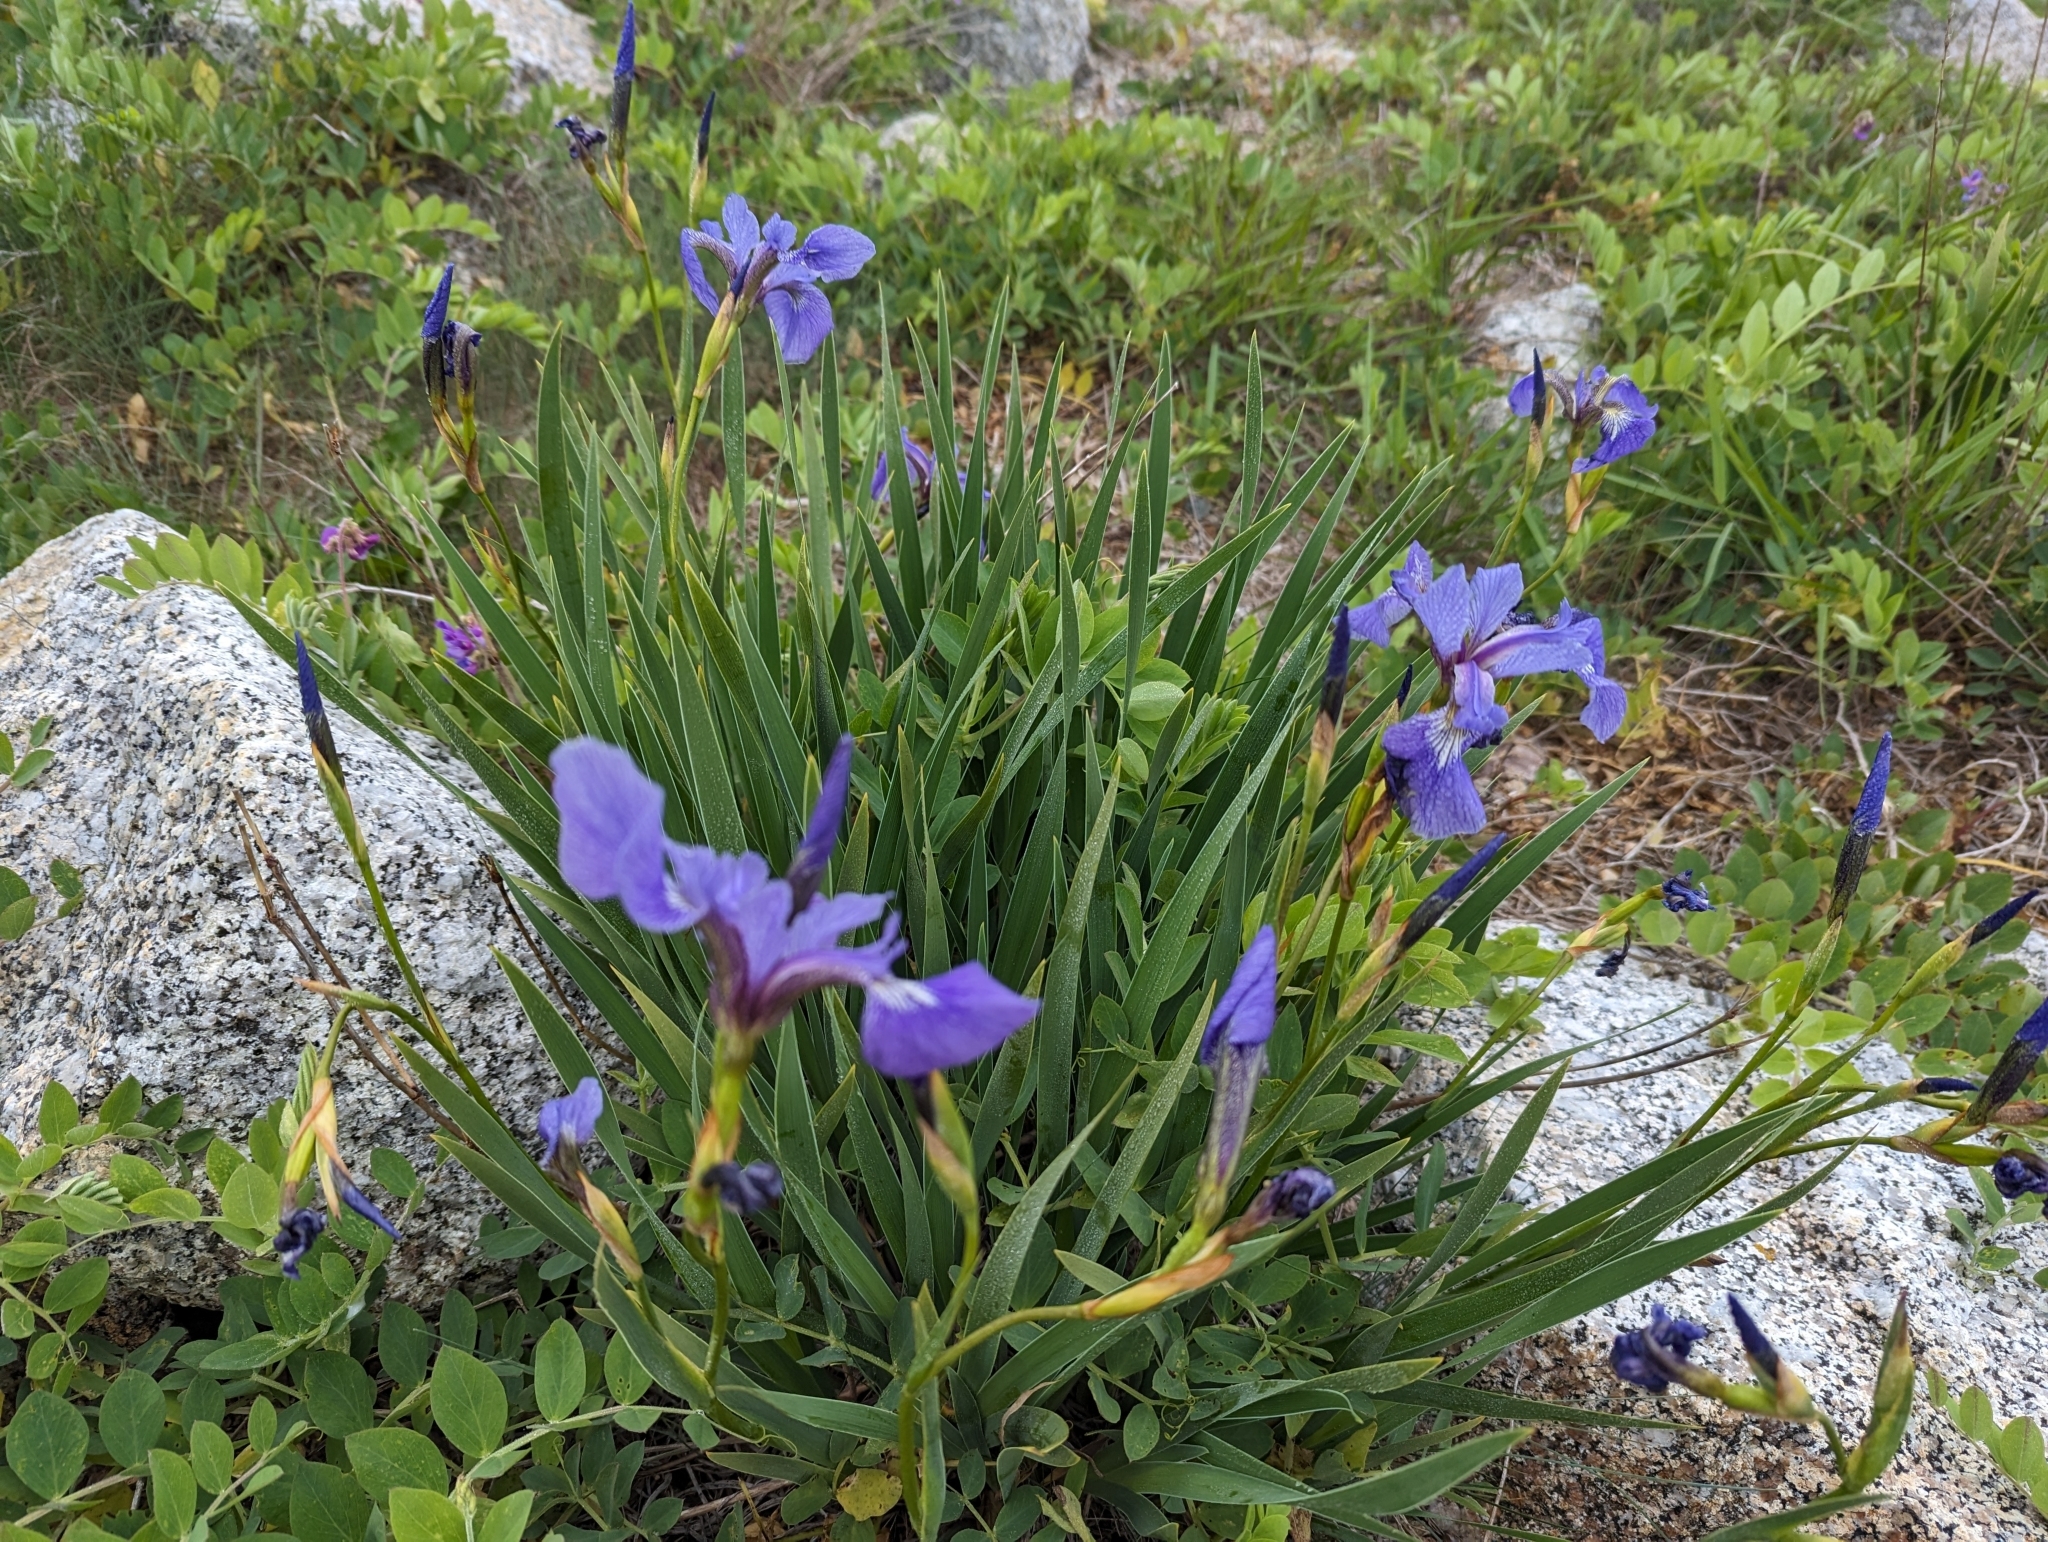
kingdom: Plantae
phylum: Tracheophyta
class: Liliopsida
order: Asparagales
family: Iridaceae
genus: Iris
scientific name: Iris versicolor
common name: Purple iris
